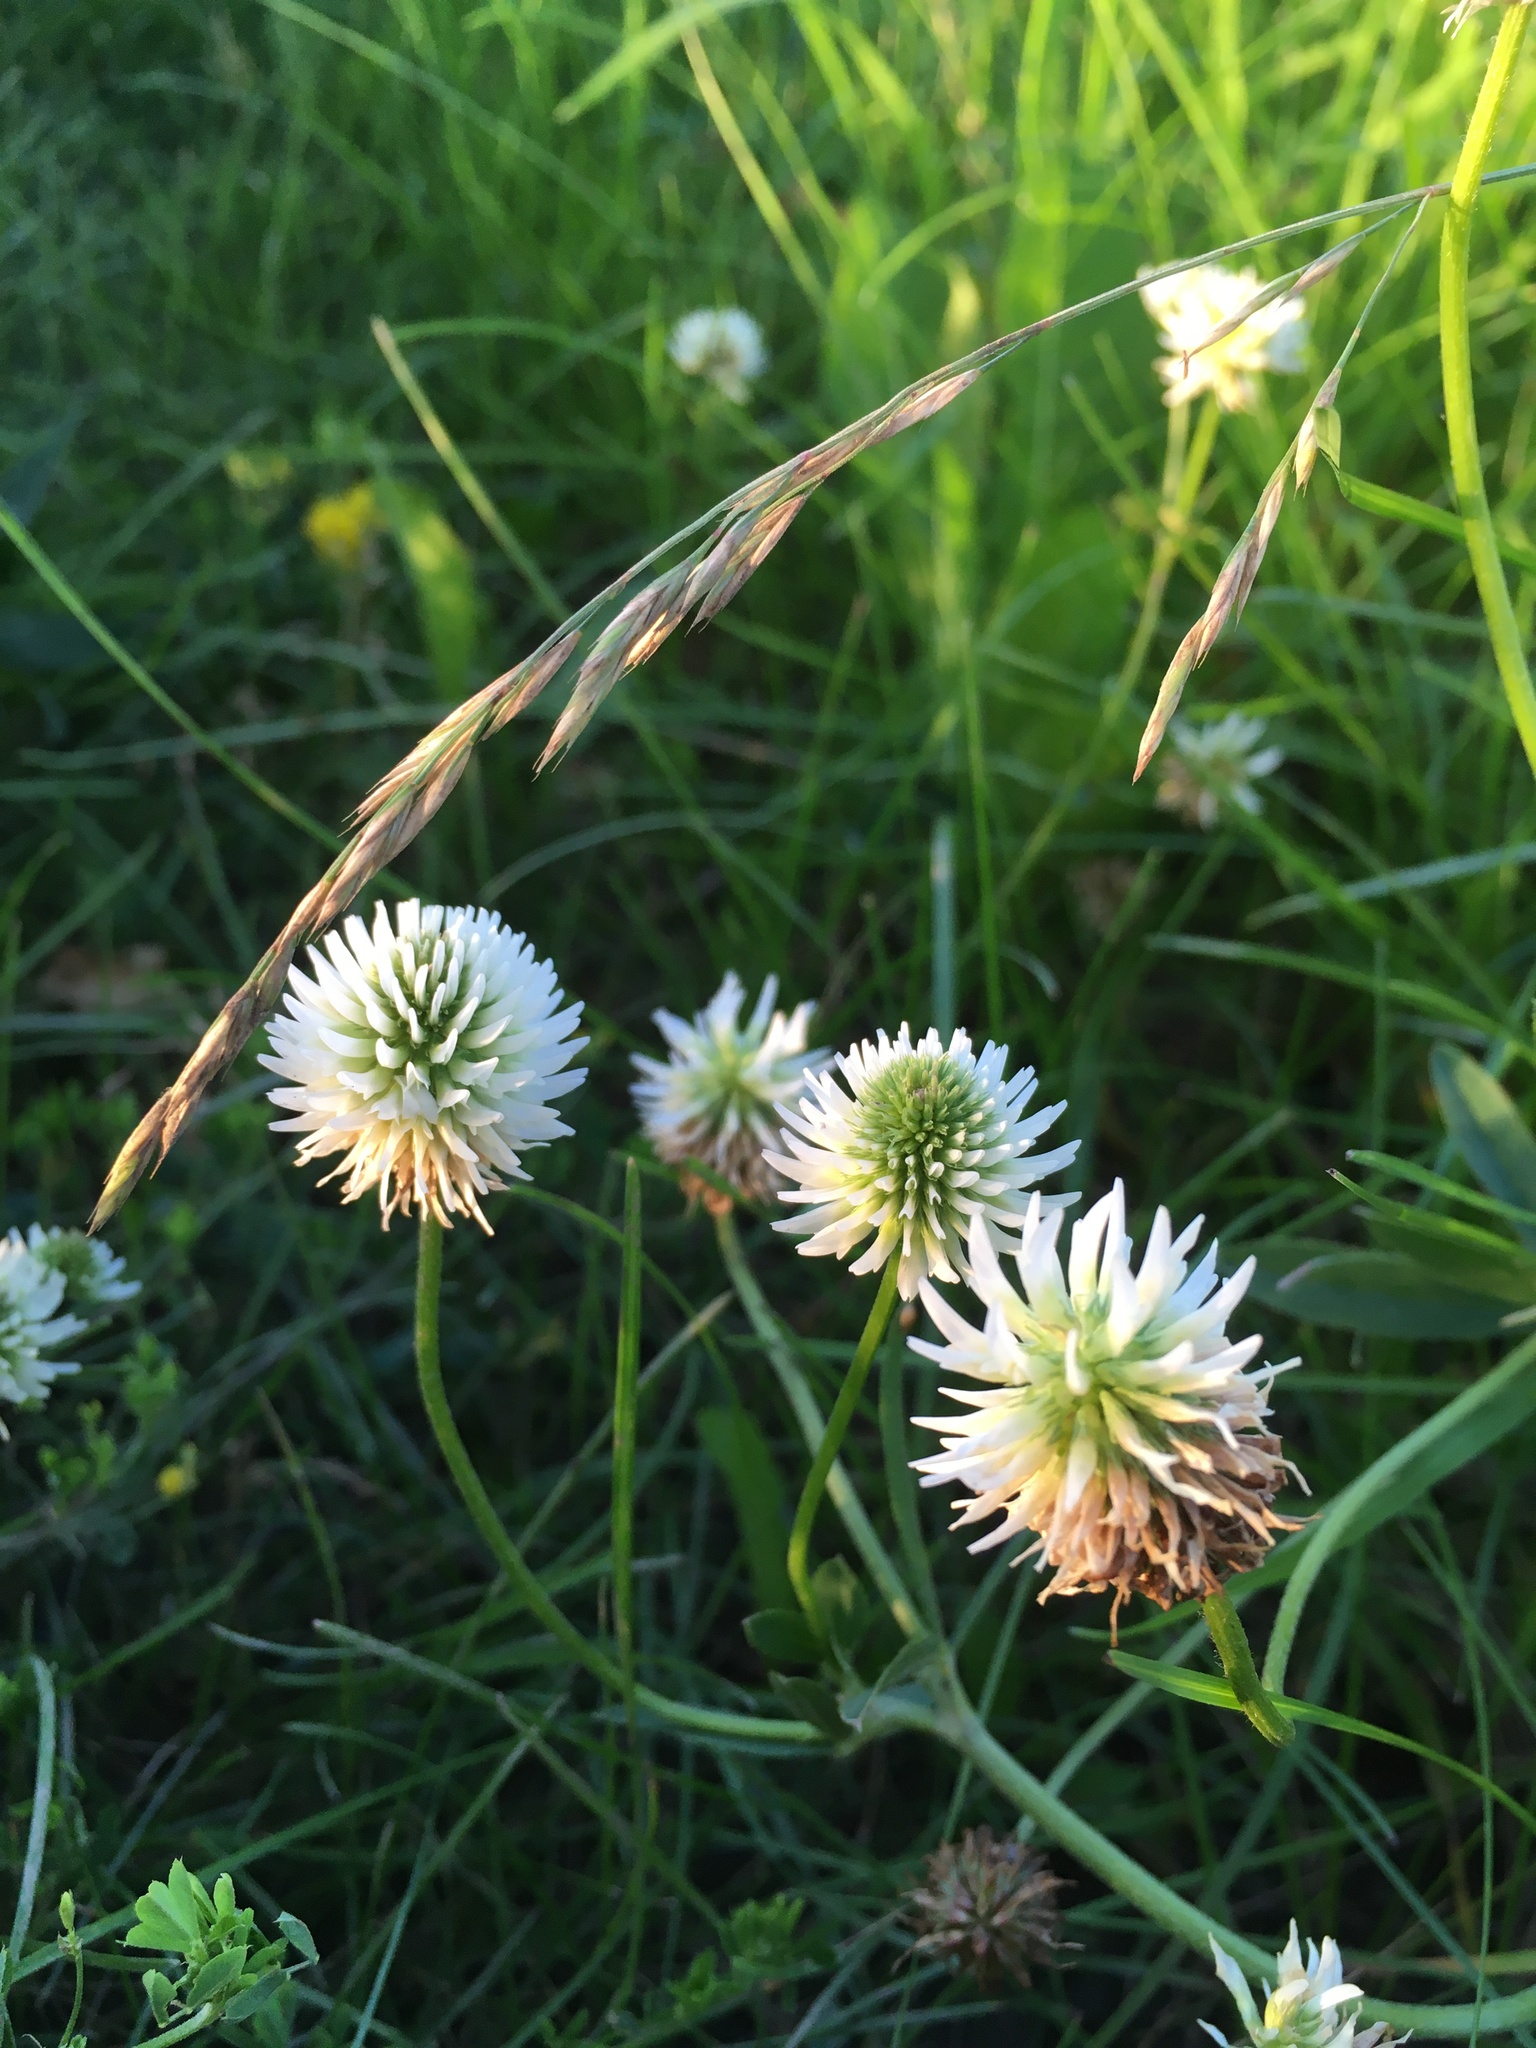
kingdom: Plantae
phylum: Tracheophyta
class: Magnoliopsida
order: Fabales
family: Fabaceae
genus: Trifolium
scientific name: Trifolium montanum
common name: Mountain clover
